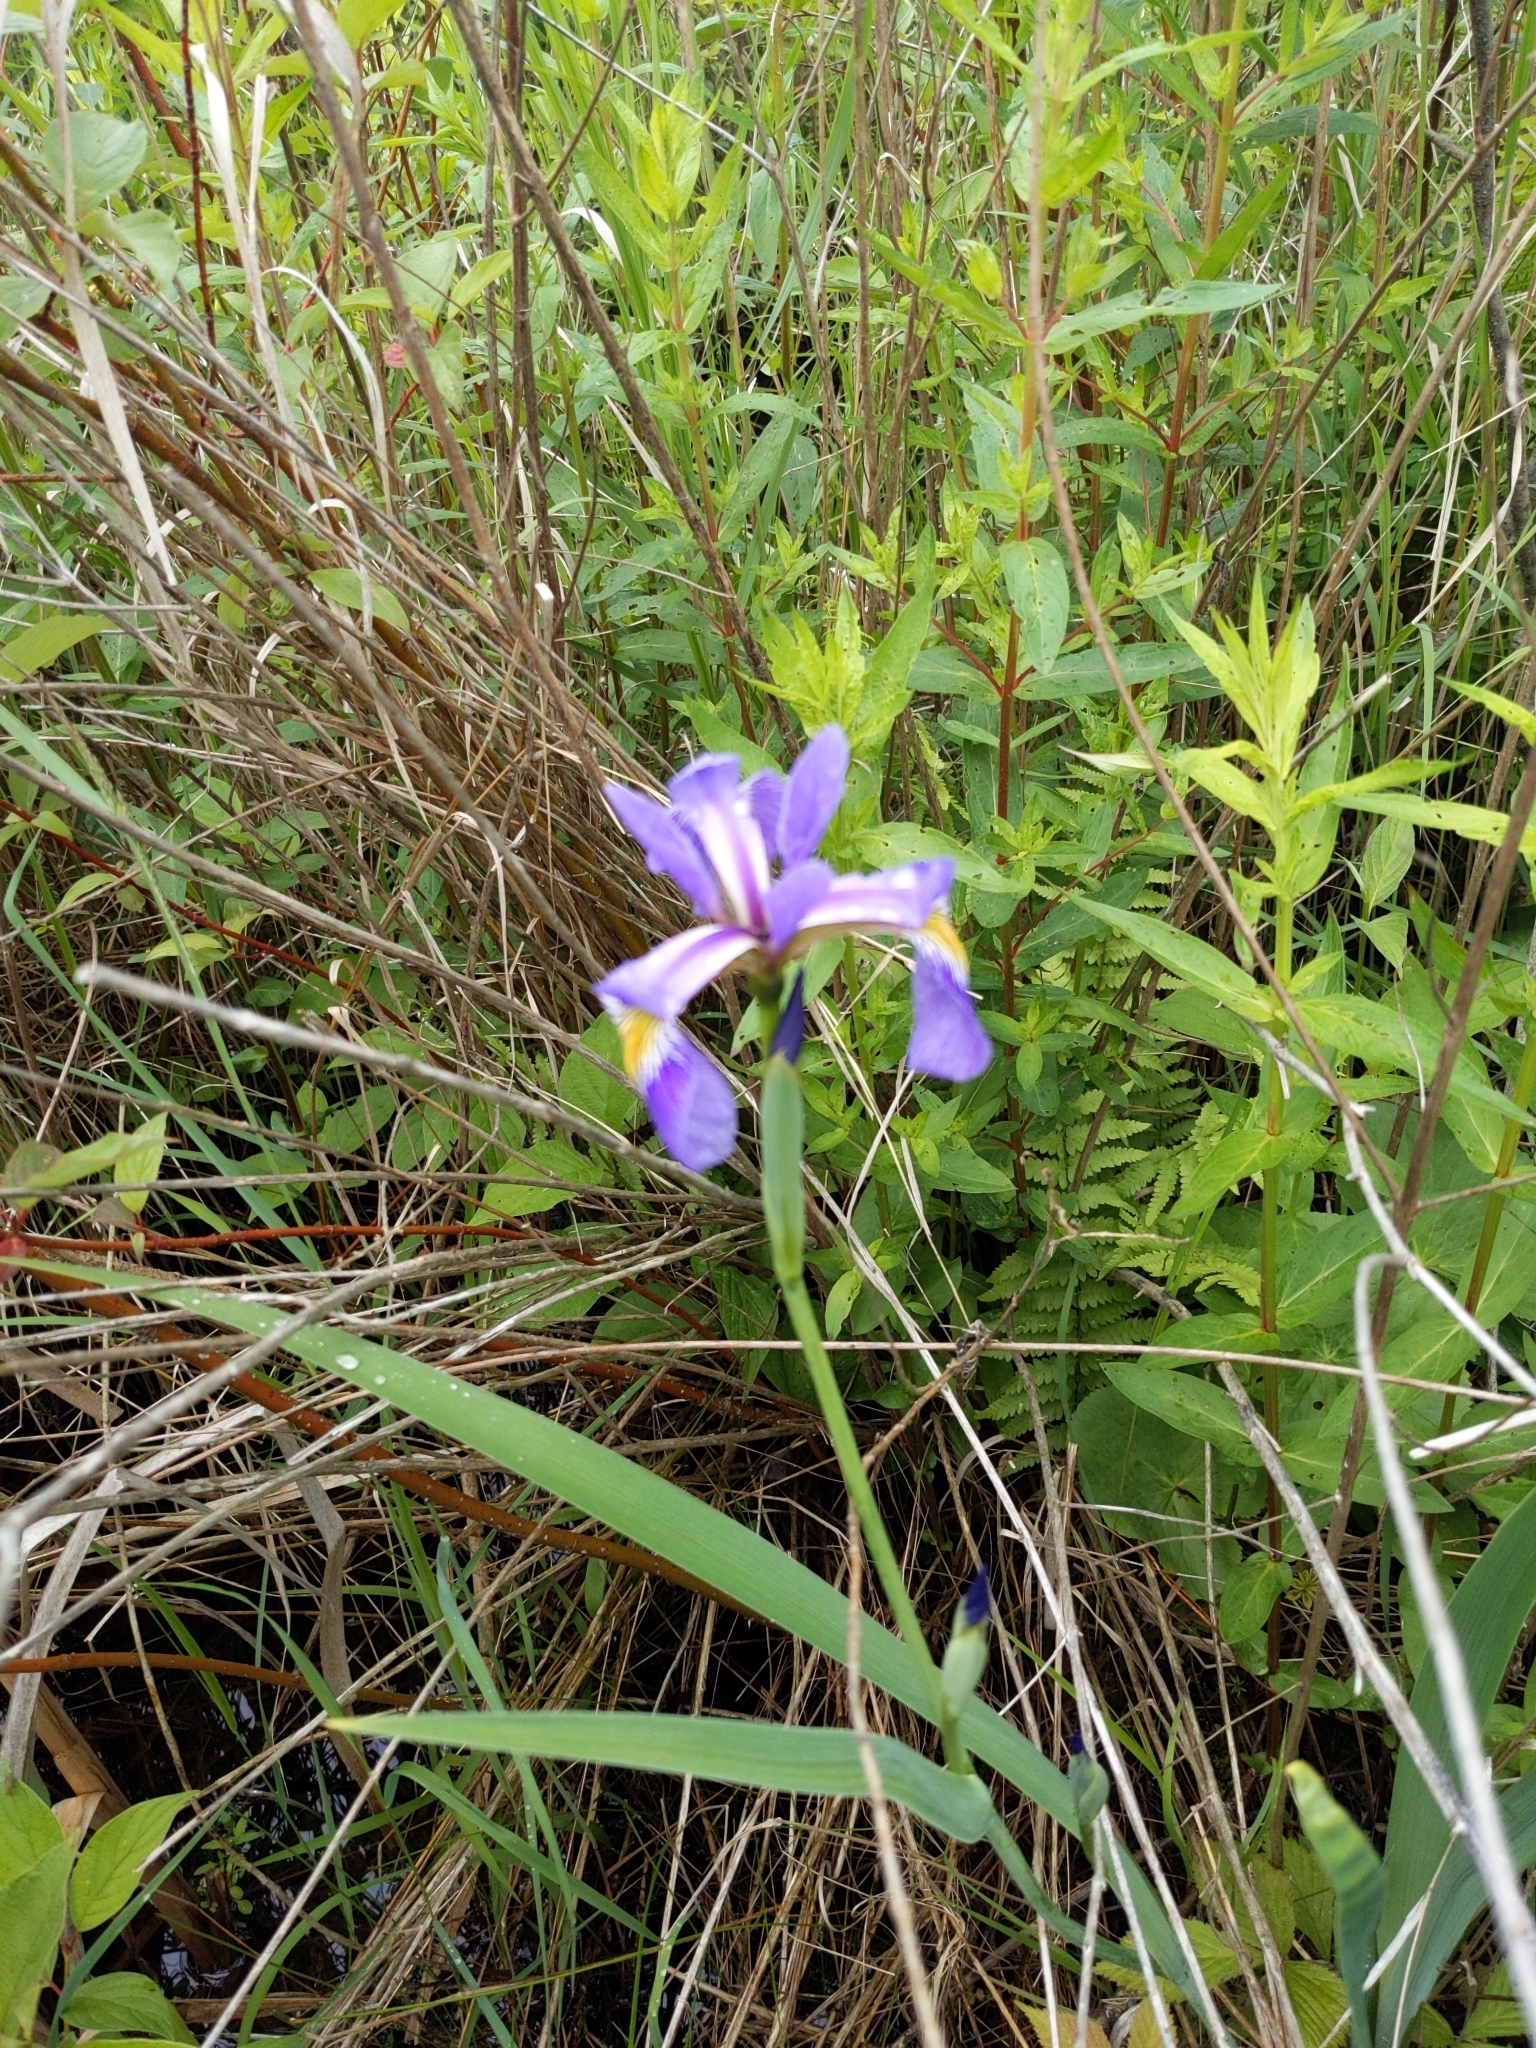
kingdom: Plantae
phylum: Tracheophyta
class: Liliopsida
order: Asparagales
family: Iridaceae
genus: Iris
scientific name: Iris versicolor
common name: Purple iris
